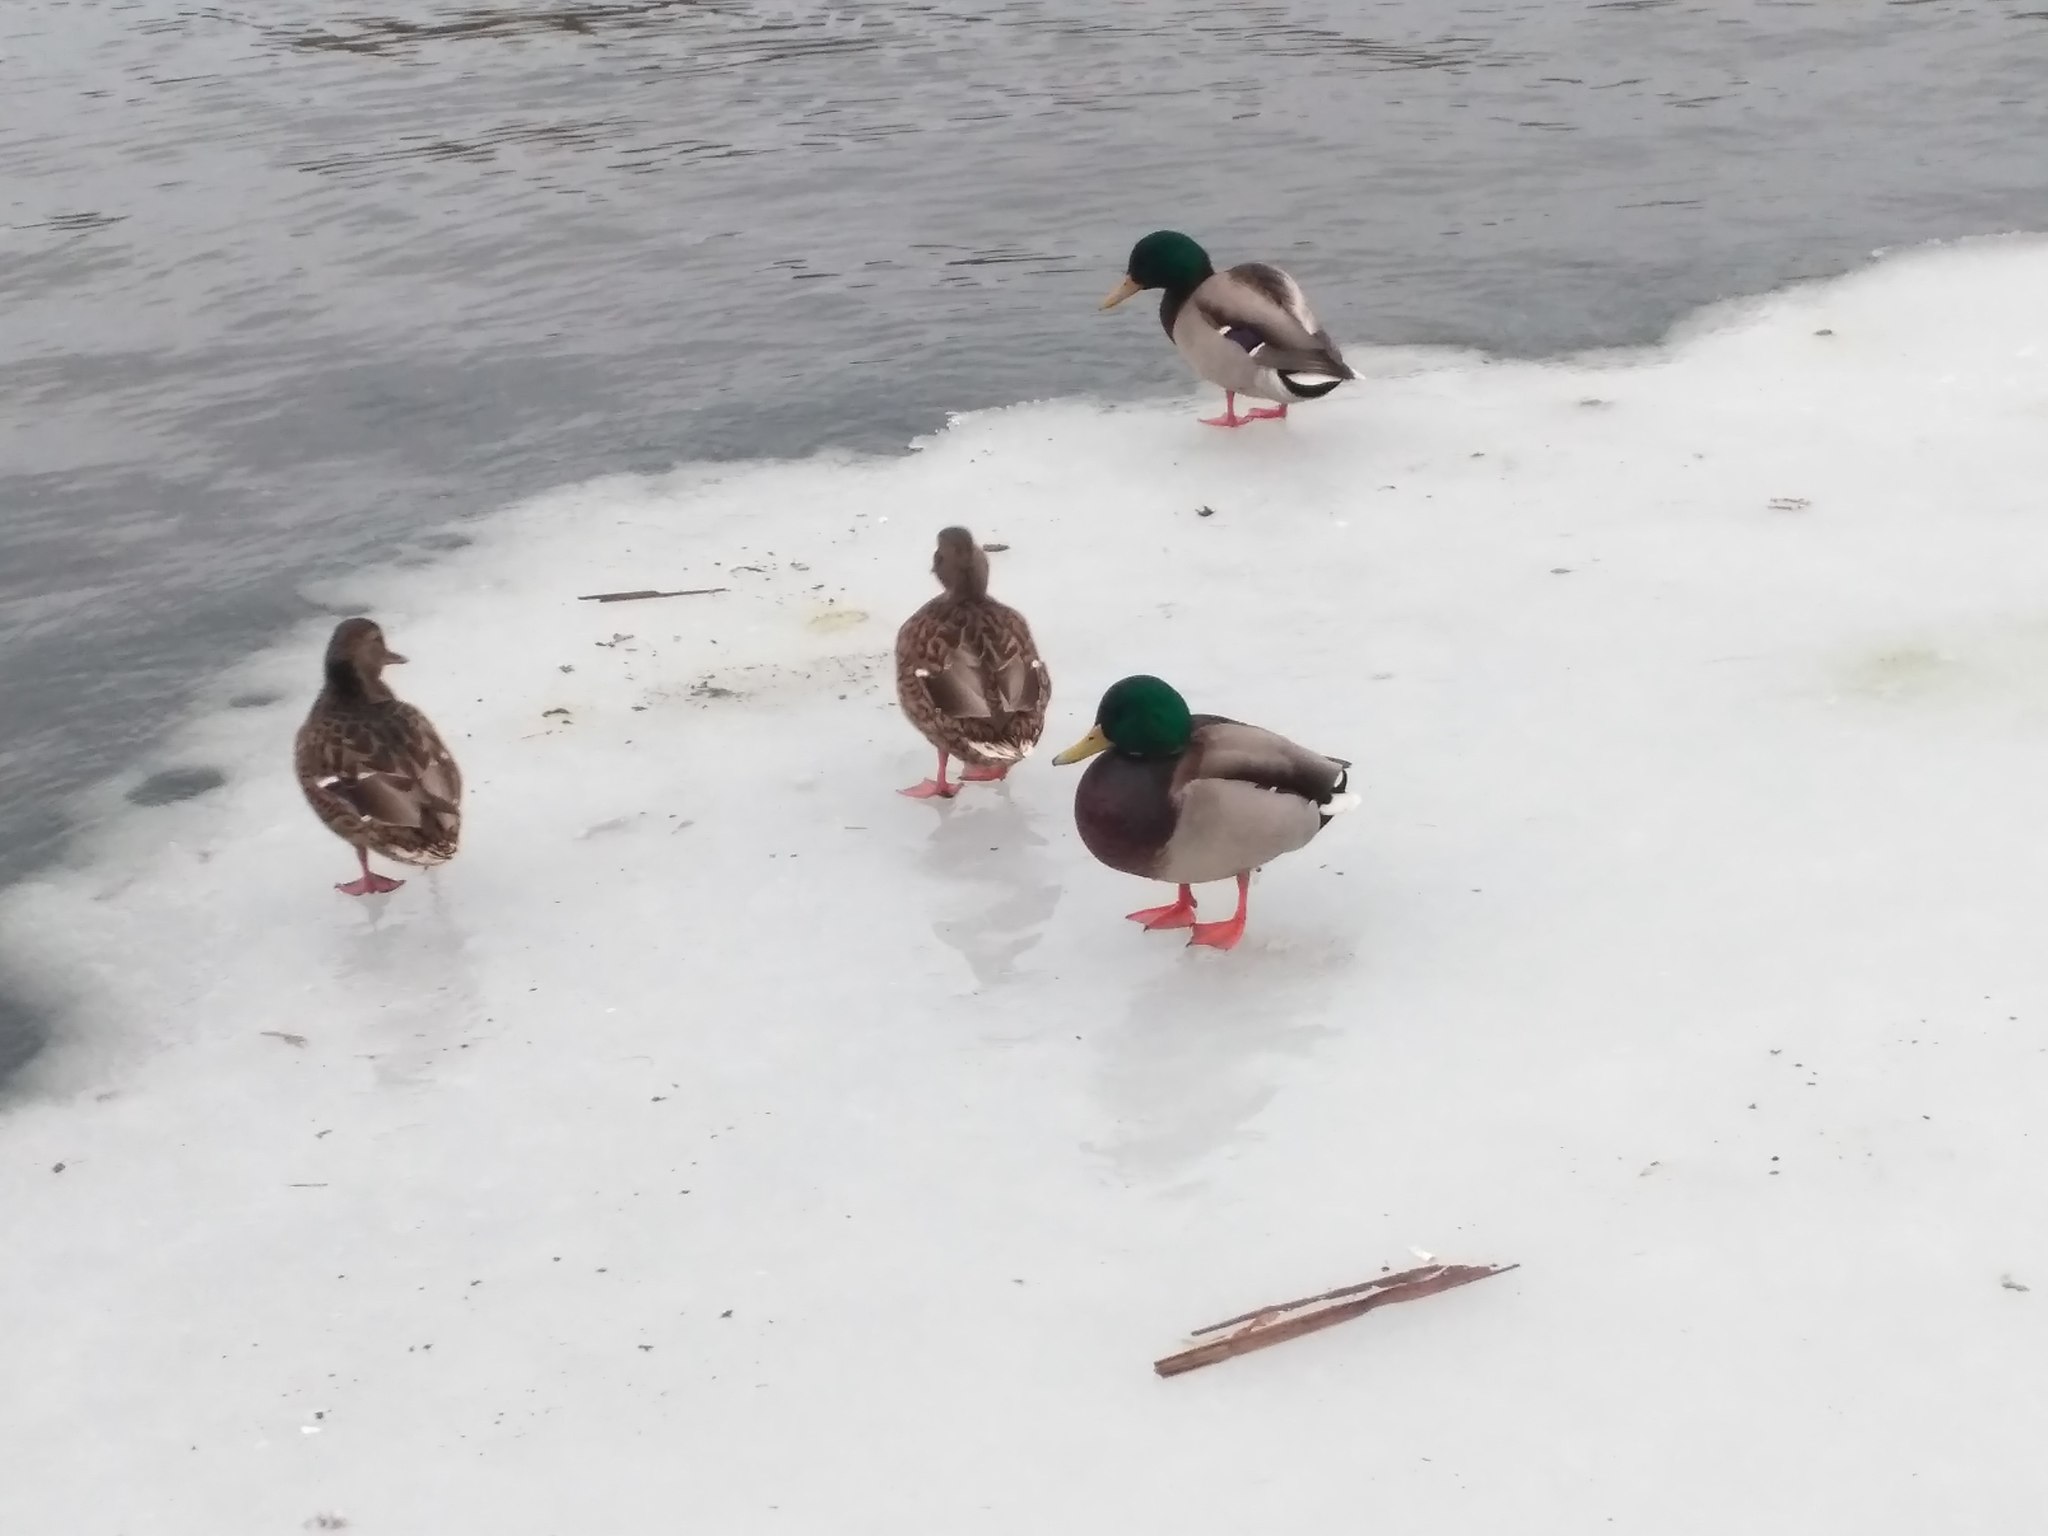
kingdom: Animalia
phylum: Chordata
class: Aves
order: Anseriformes
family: Anatidae
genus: Anas
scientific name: Anas platyrhynchos
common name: Mallard
